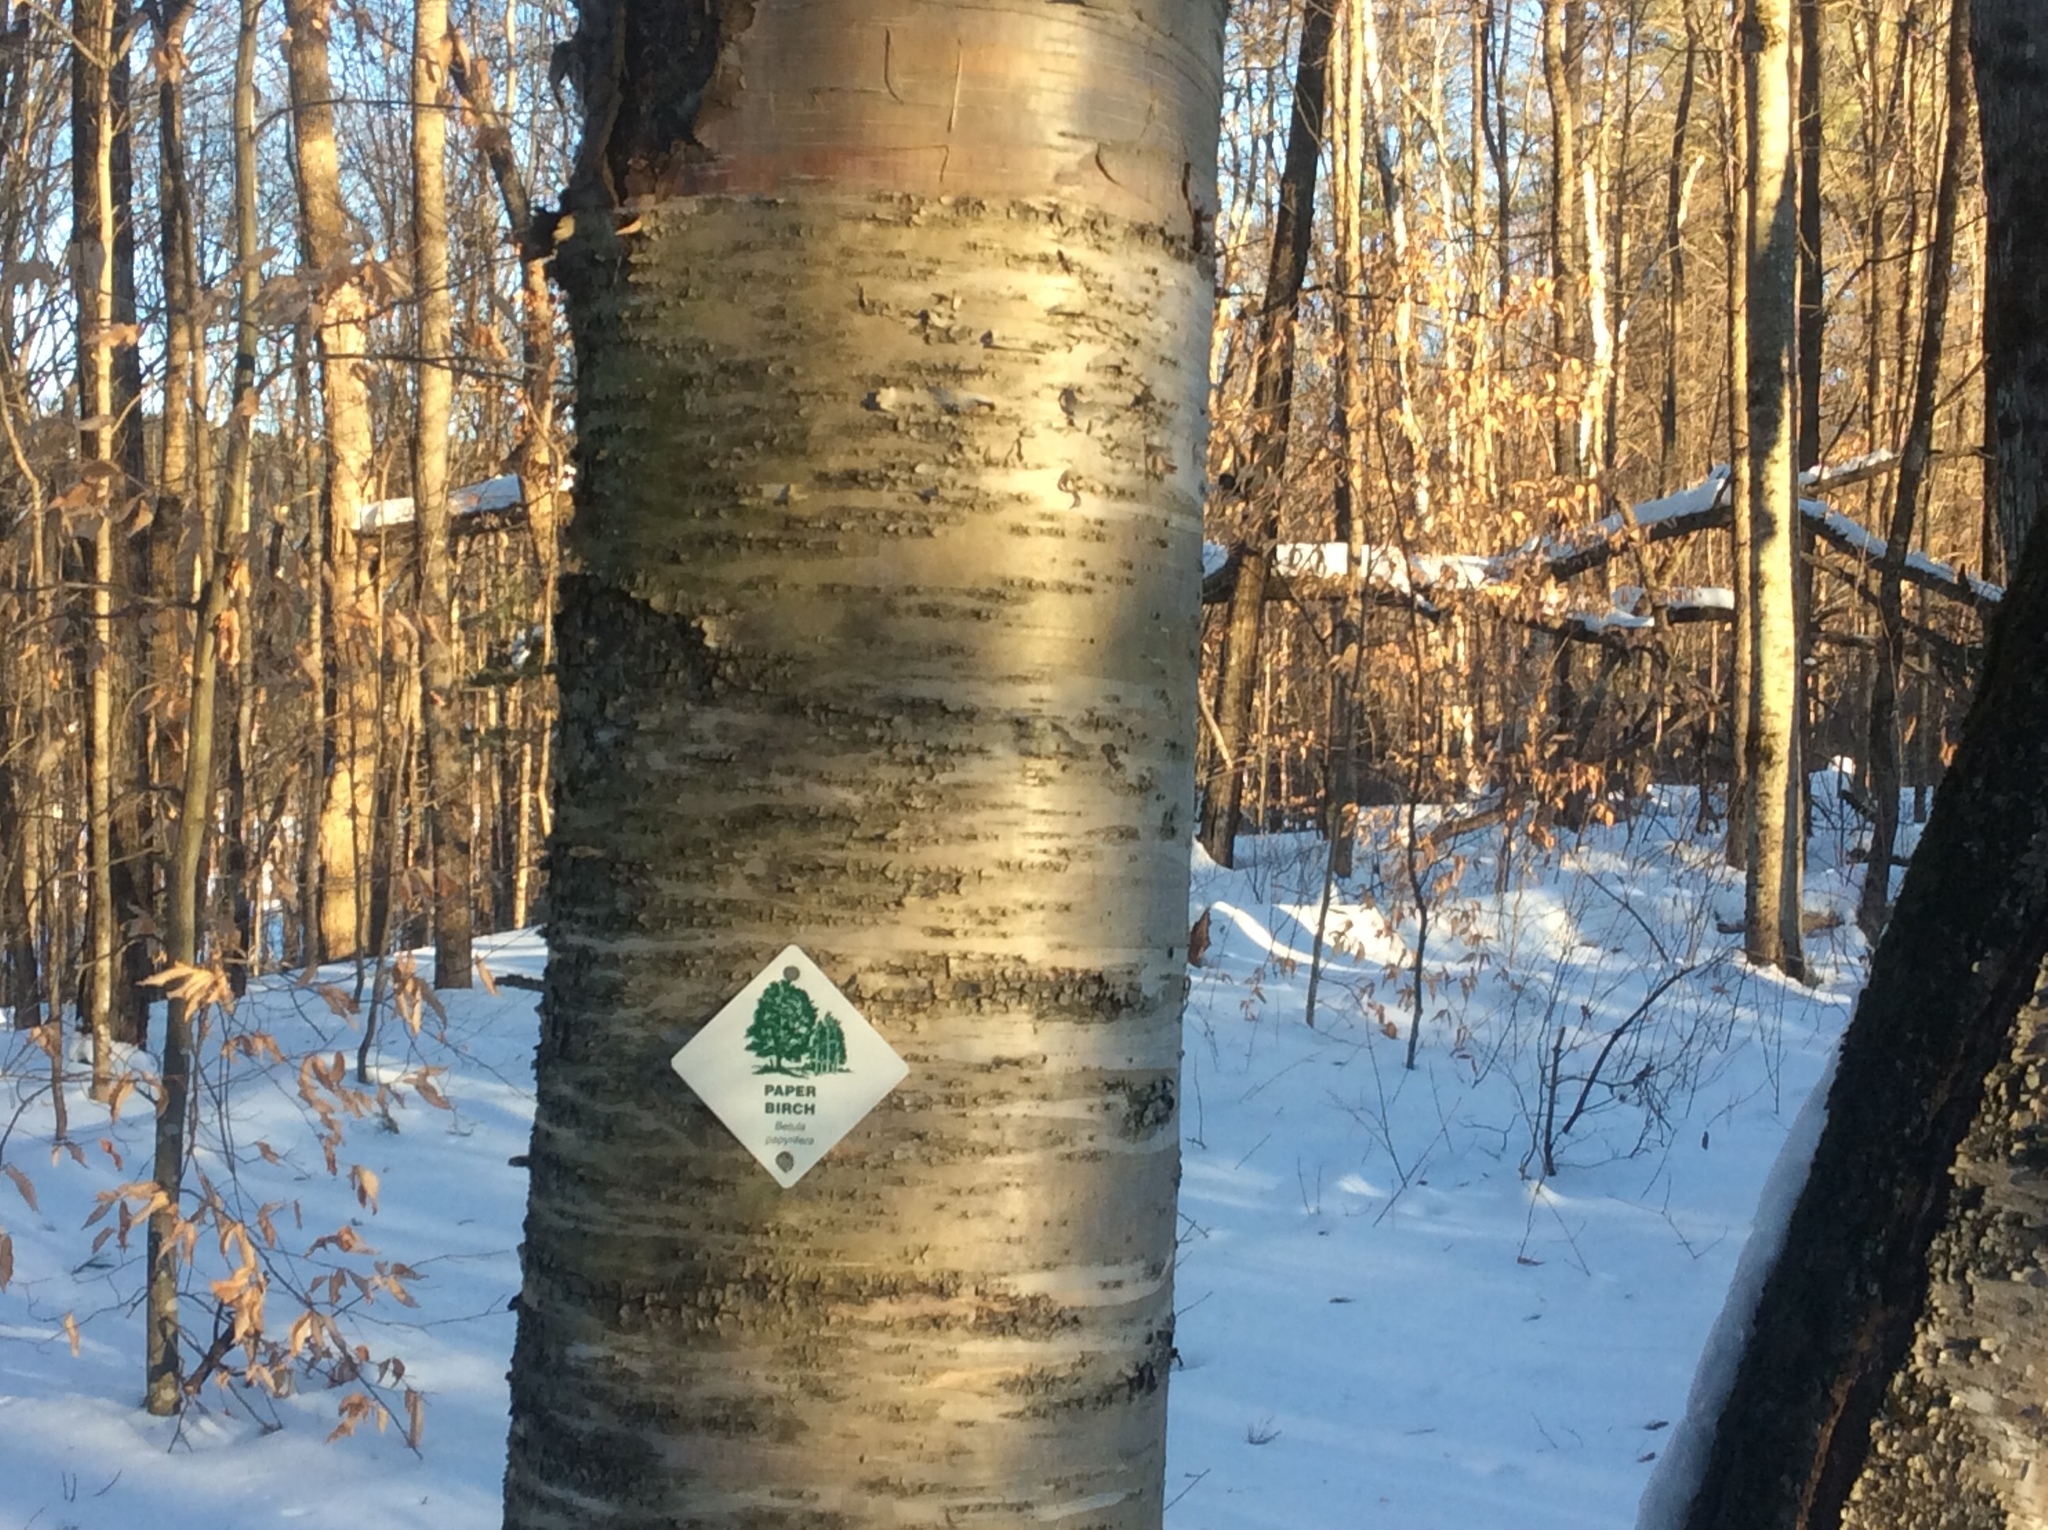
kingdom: Plantae
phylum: Tracheophyta
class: Magnoliopsida
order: Fagales
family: Betulaceae
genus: Betula
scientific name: Betula papyrifera
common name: Paper birch
